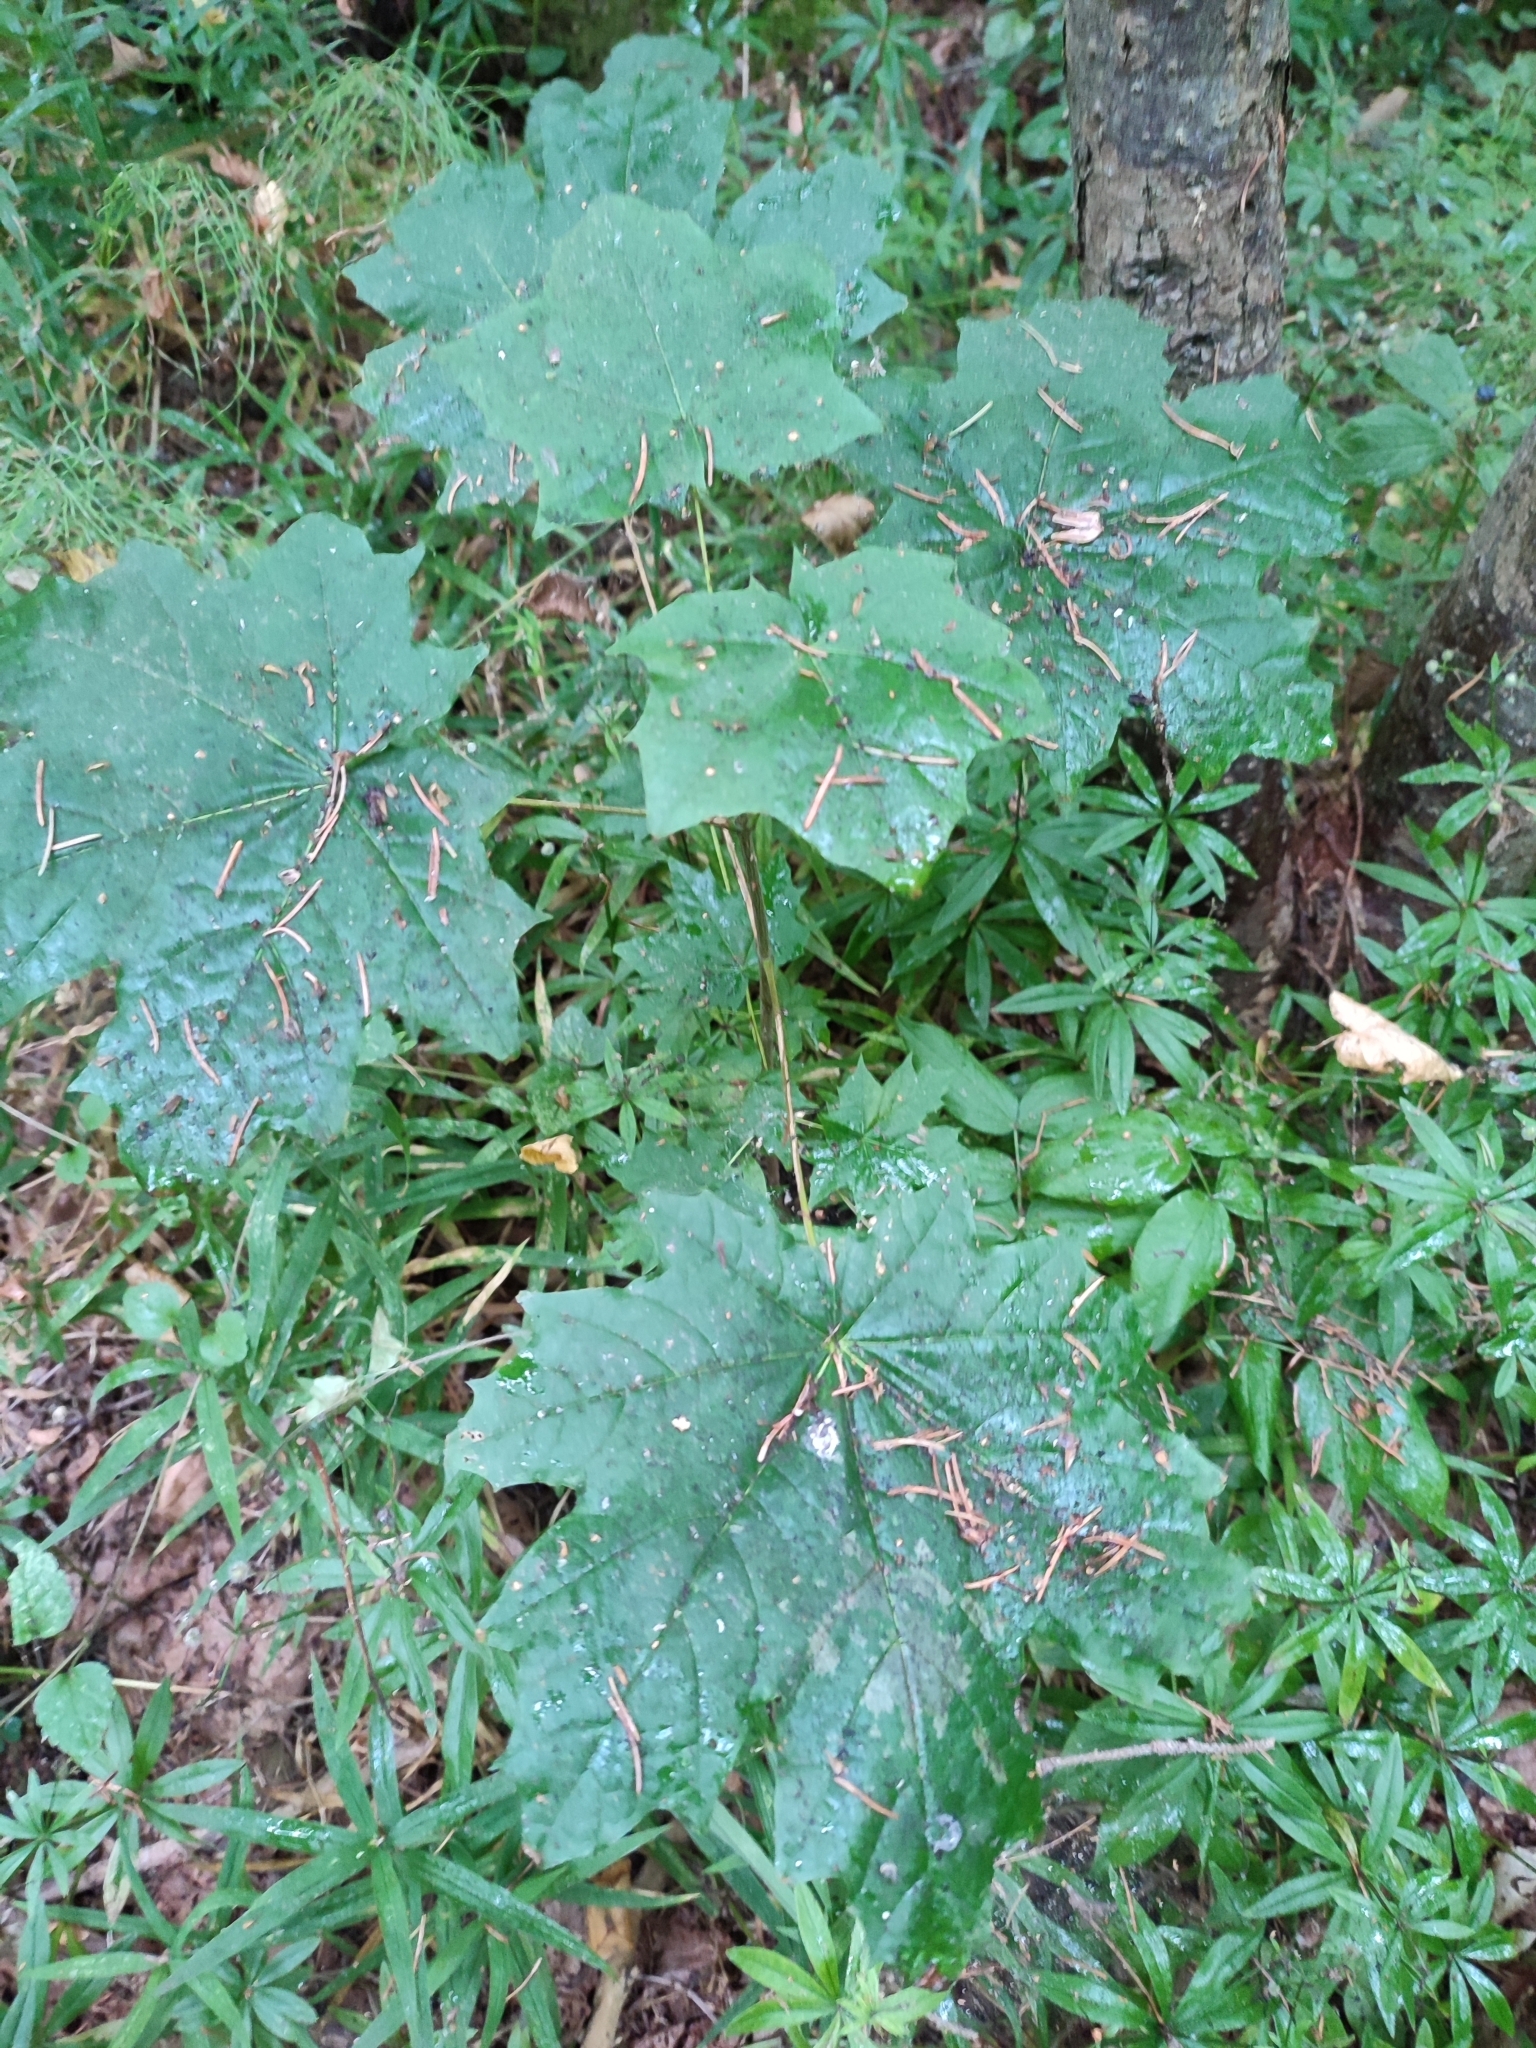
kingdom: Plantae
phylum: Tracheophyta
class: Magnoliopsida
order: Sapindales
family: Sapindaceae
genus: Acer
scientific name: Acer platanoides
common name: Norway maple
